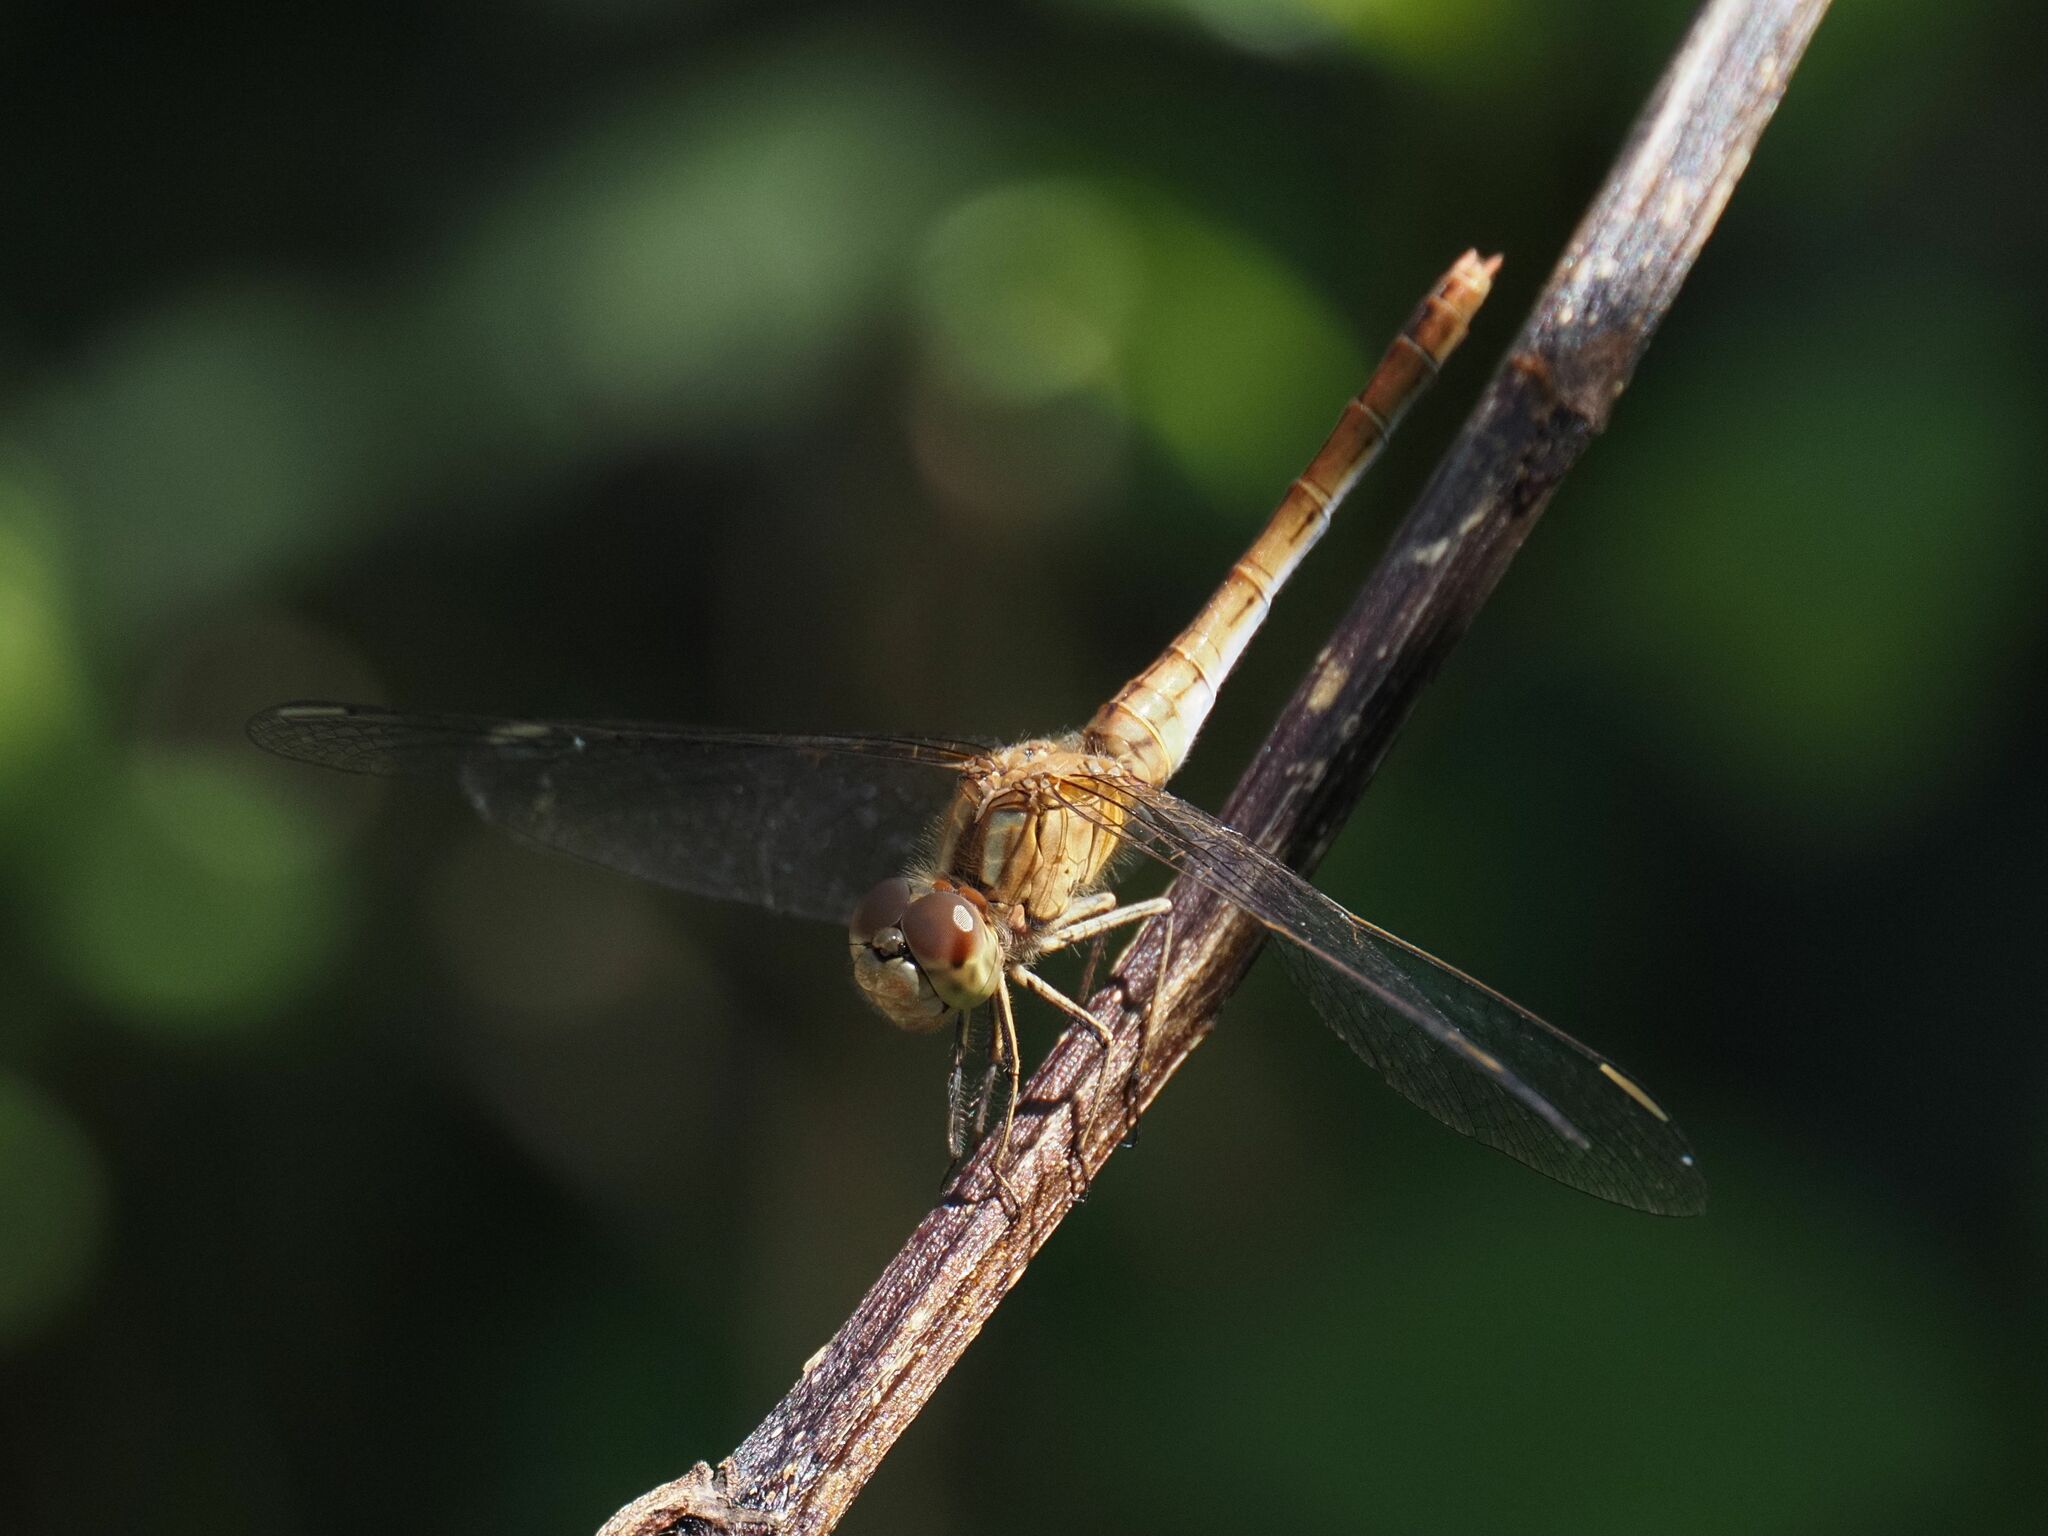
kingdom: Animalia
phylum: Arthropoda
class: Insecta
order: Odonata
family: Libellulidae
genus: Sympetrum
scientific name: Sympetrum meridionale
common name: Southern darter
